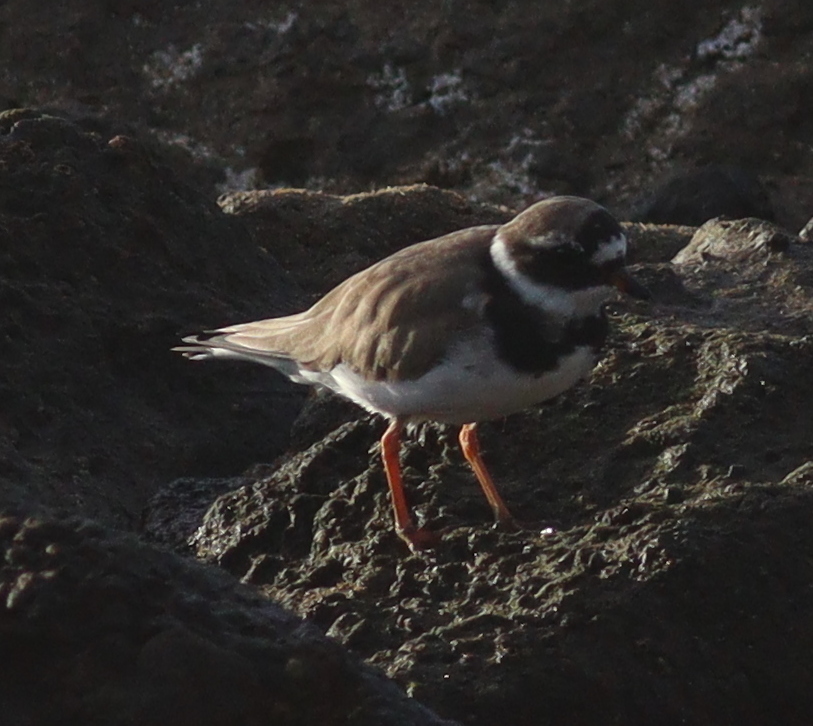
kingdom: Animalia
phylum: Chordata
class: Aves
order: Charadriiformes
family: Charadriidae
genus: Charadrius
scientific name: Charadrius hiaticula
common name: Common ringed plover
